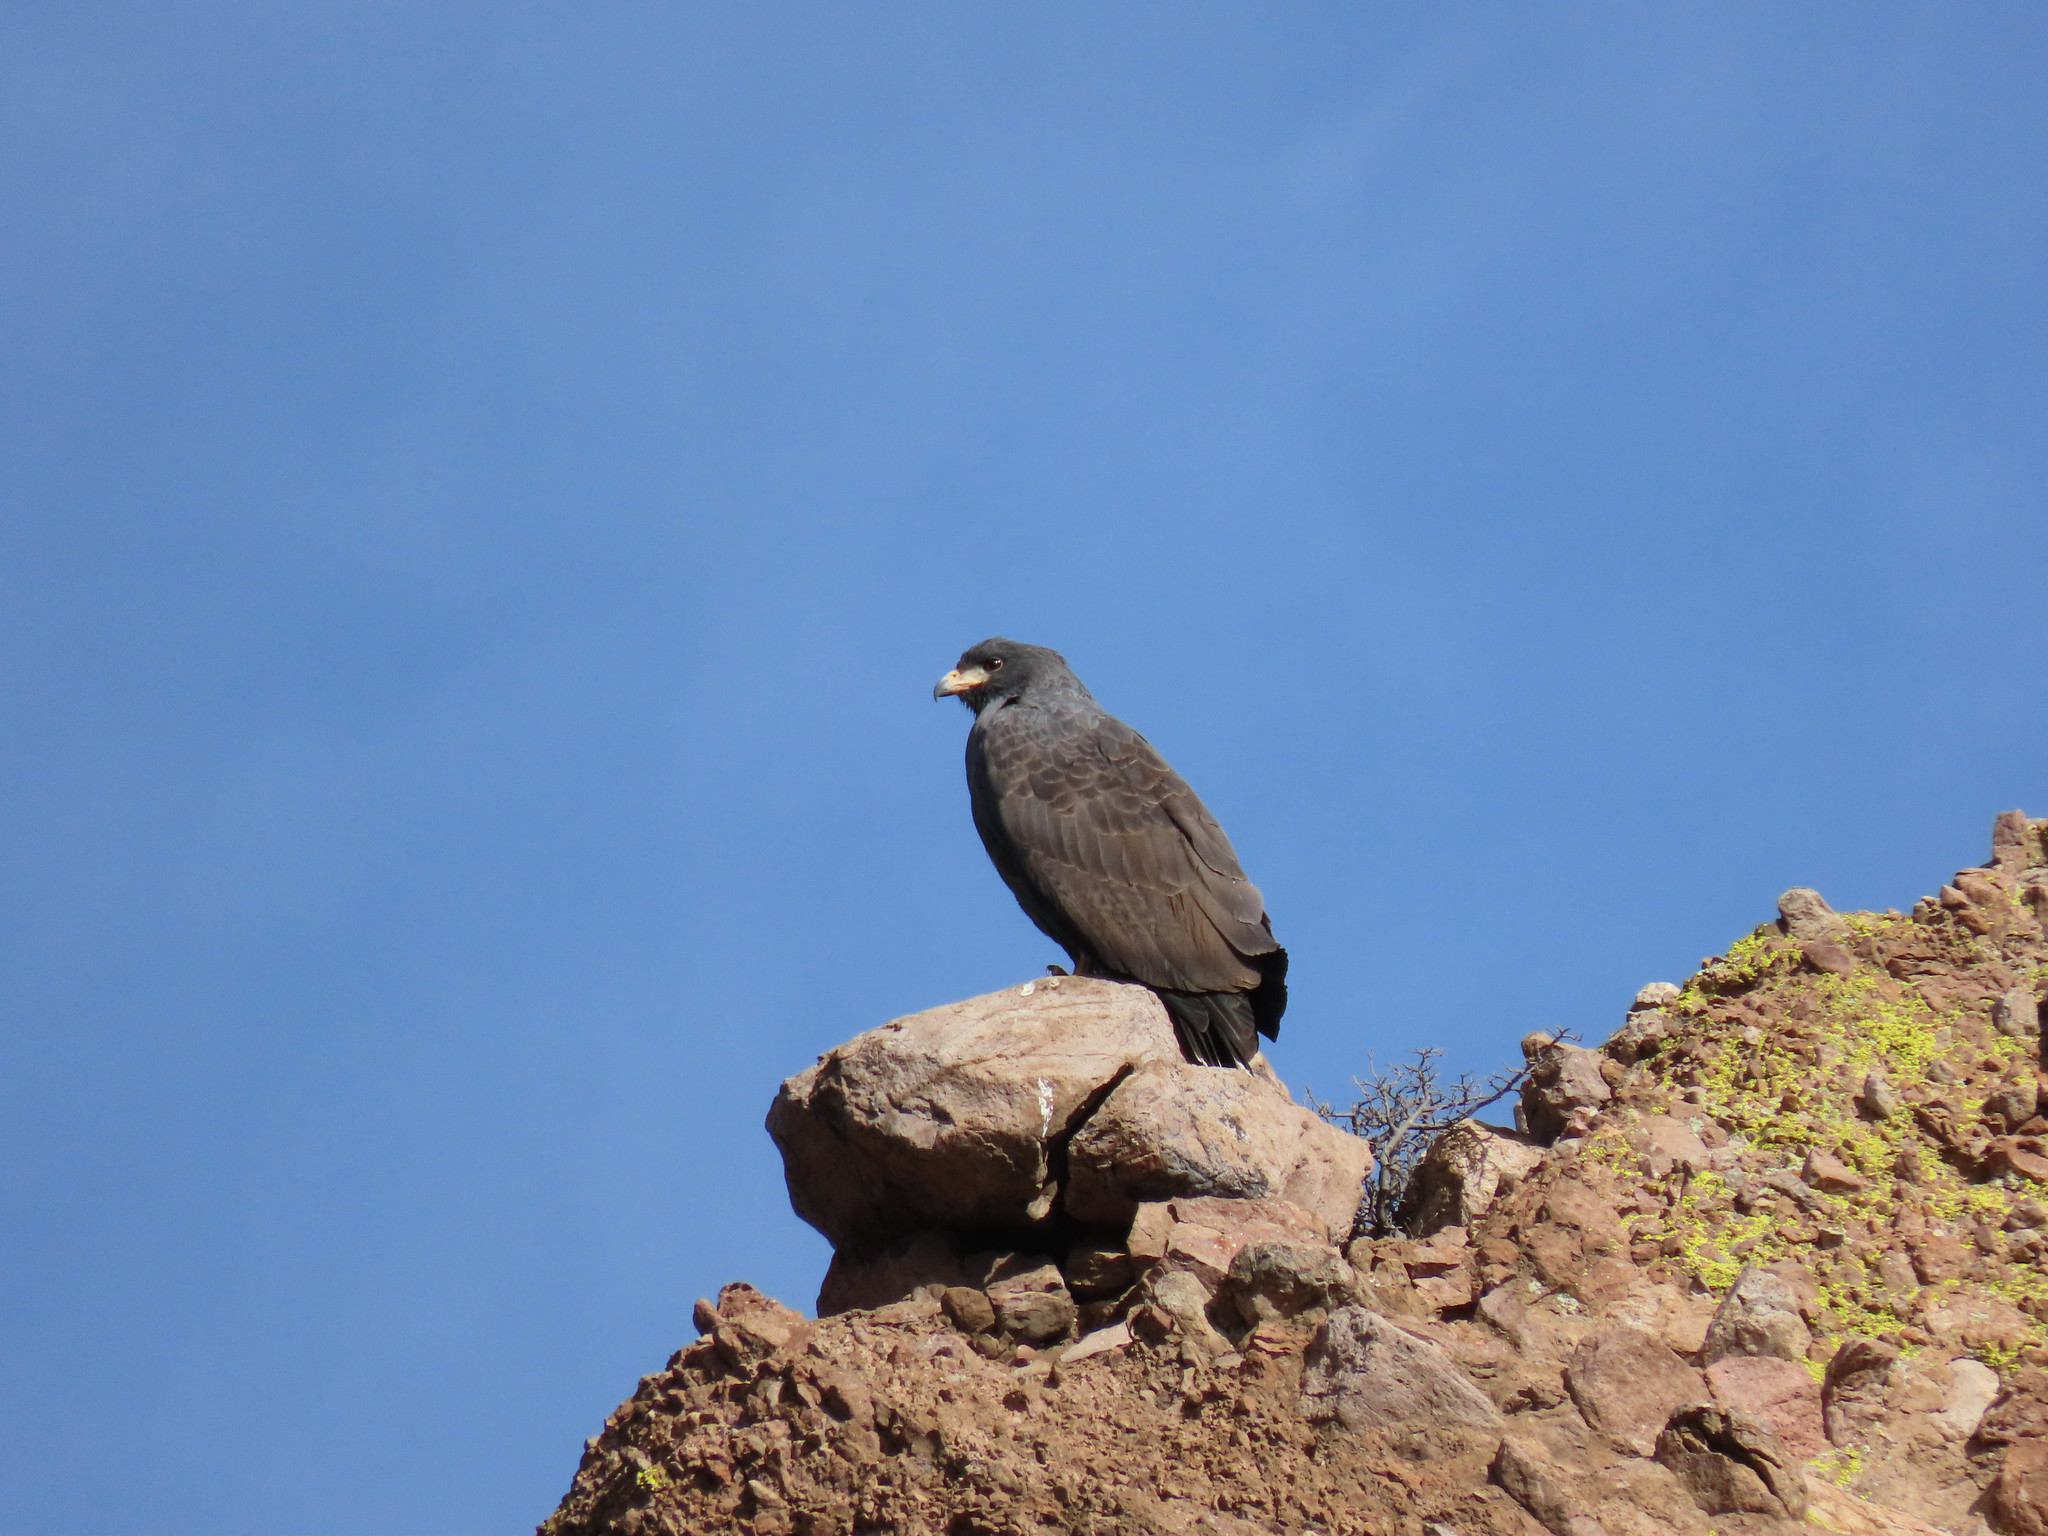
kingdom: Animalia
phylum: Chordata
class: Aves
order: Accipitriformes
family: Accipitridae
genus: Buteogallus
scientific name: Buteogallus anthracinus
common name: Common black hawk
